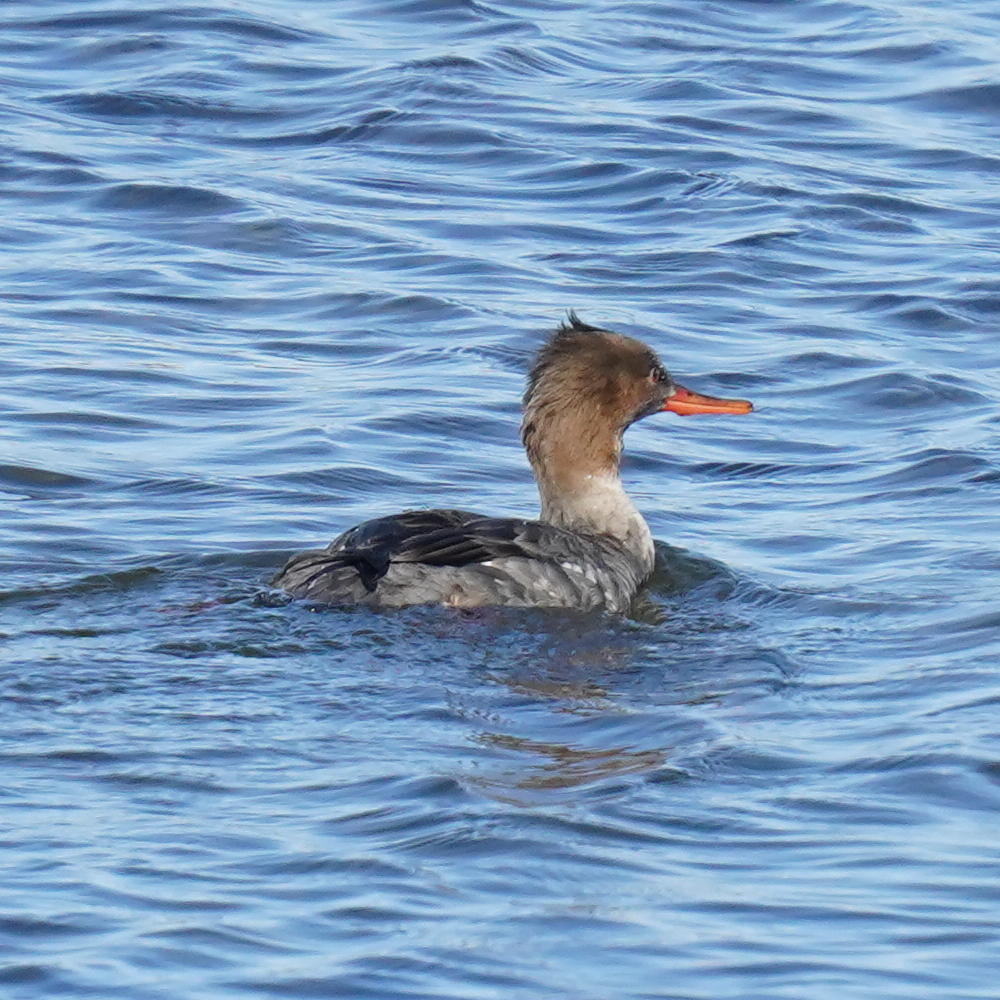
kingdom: Animalia
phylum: Chordata
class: Aves
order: Anseriformes
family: Anatidae
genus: Mergus
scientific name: Mergus serrator
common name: Red-breasted merganser
